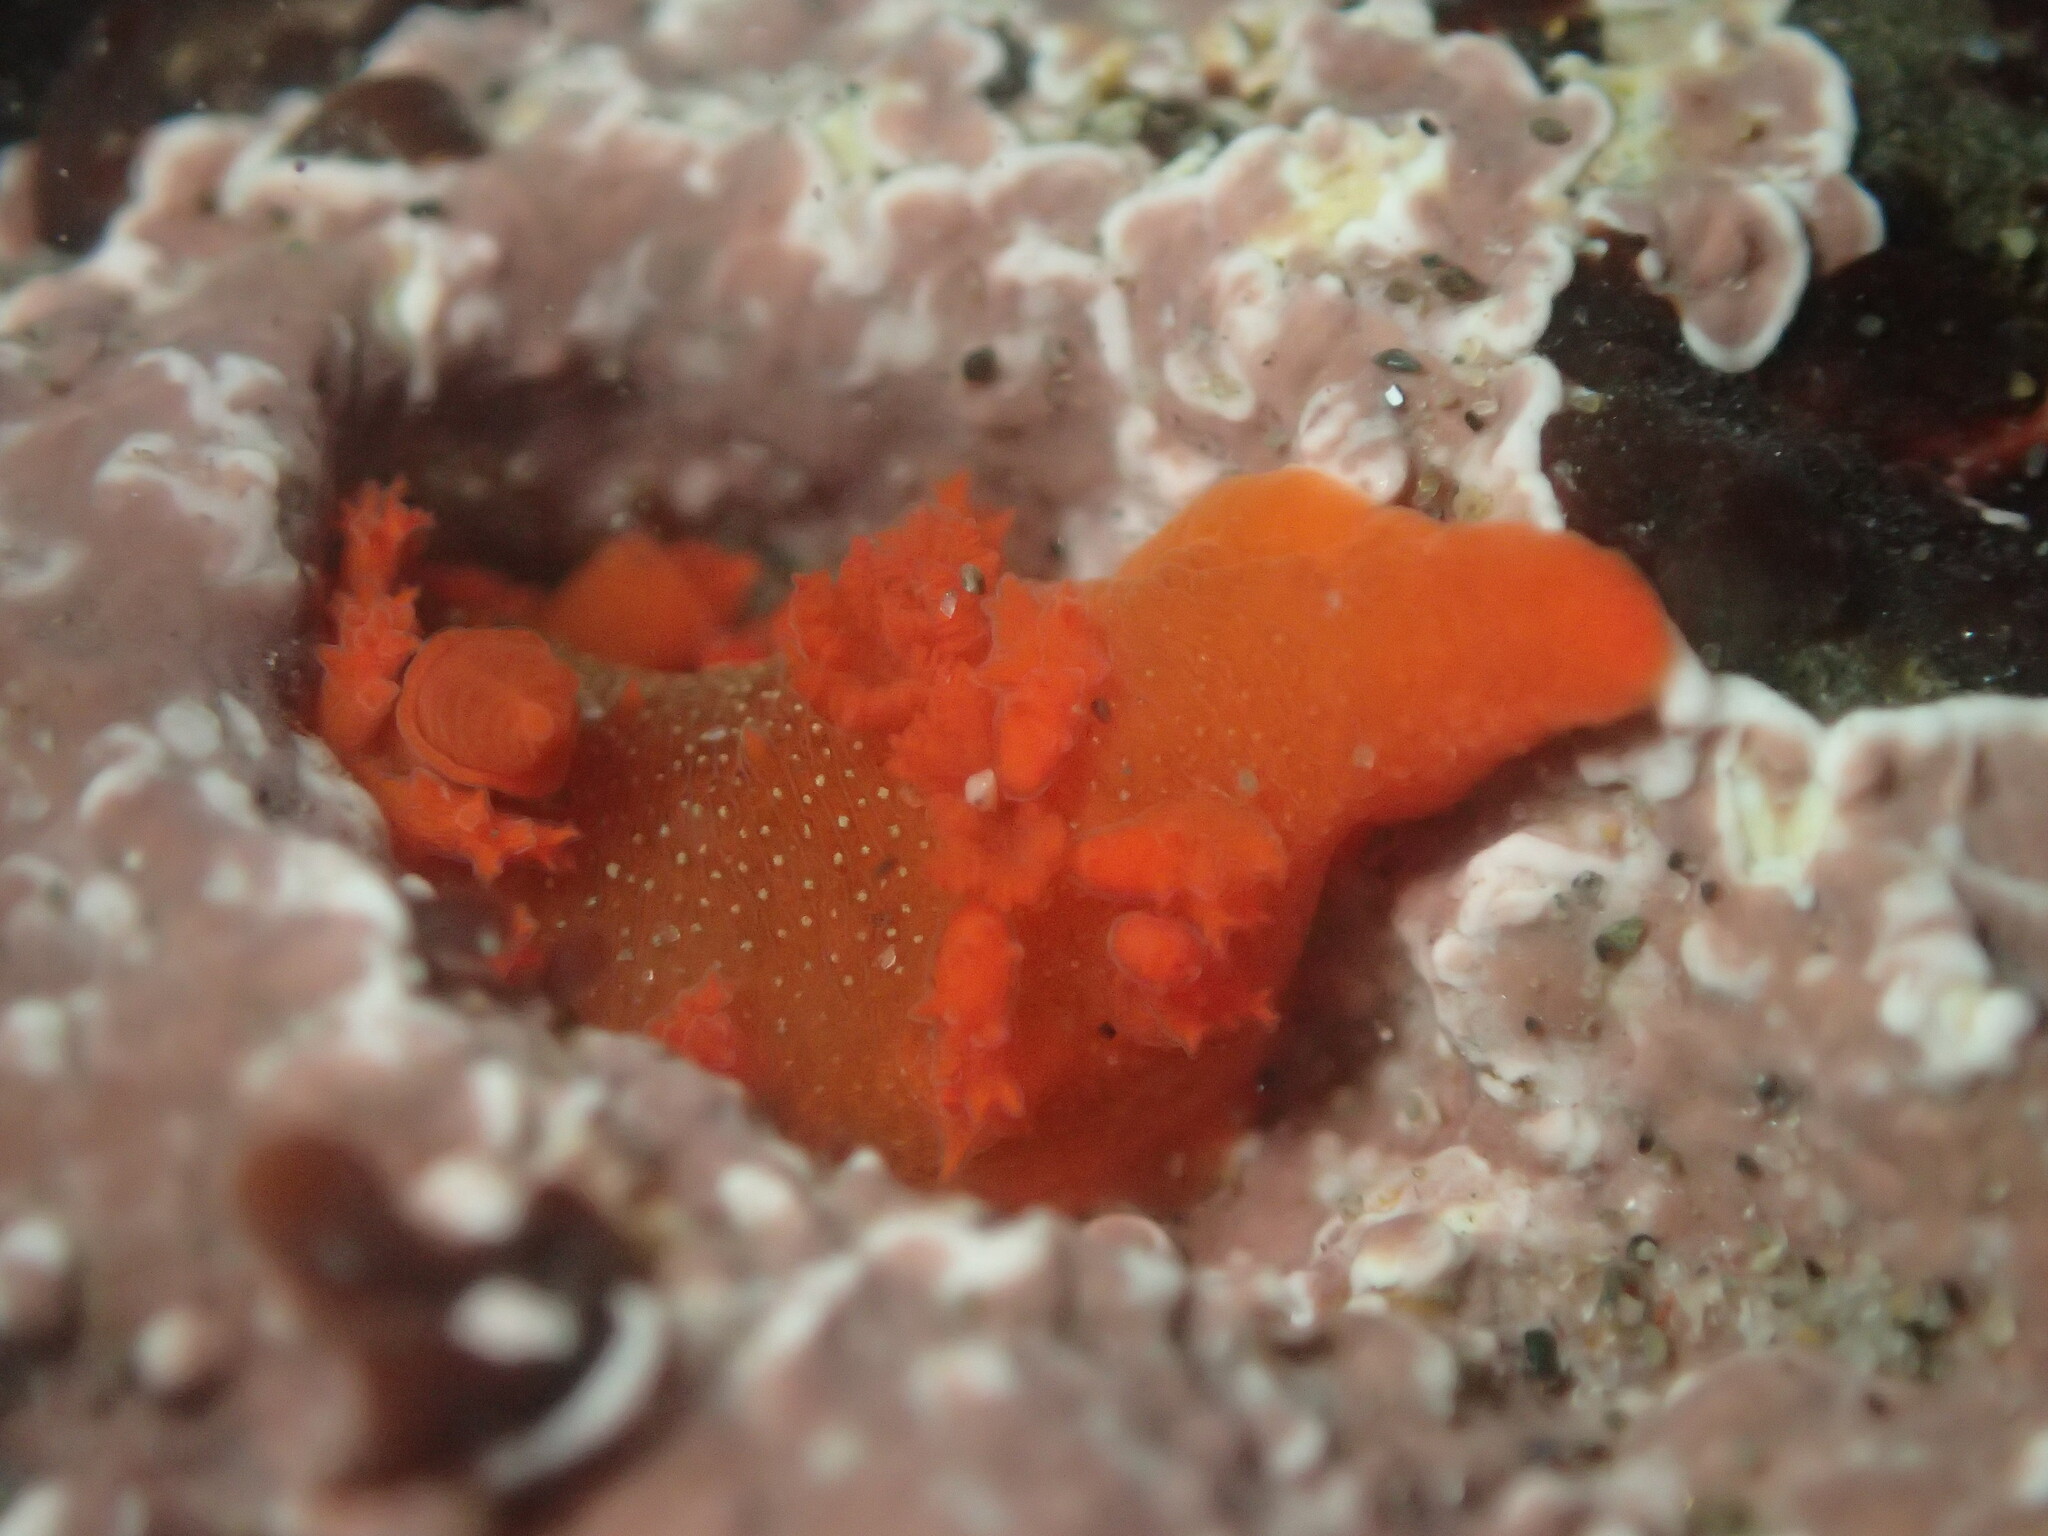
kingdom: Animalia
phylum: Mollusca
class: Gastropoda
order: Nudibranchia
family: Polyceridae
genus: Triopha
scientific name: Triopha maculata
